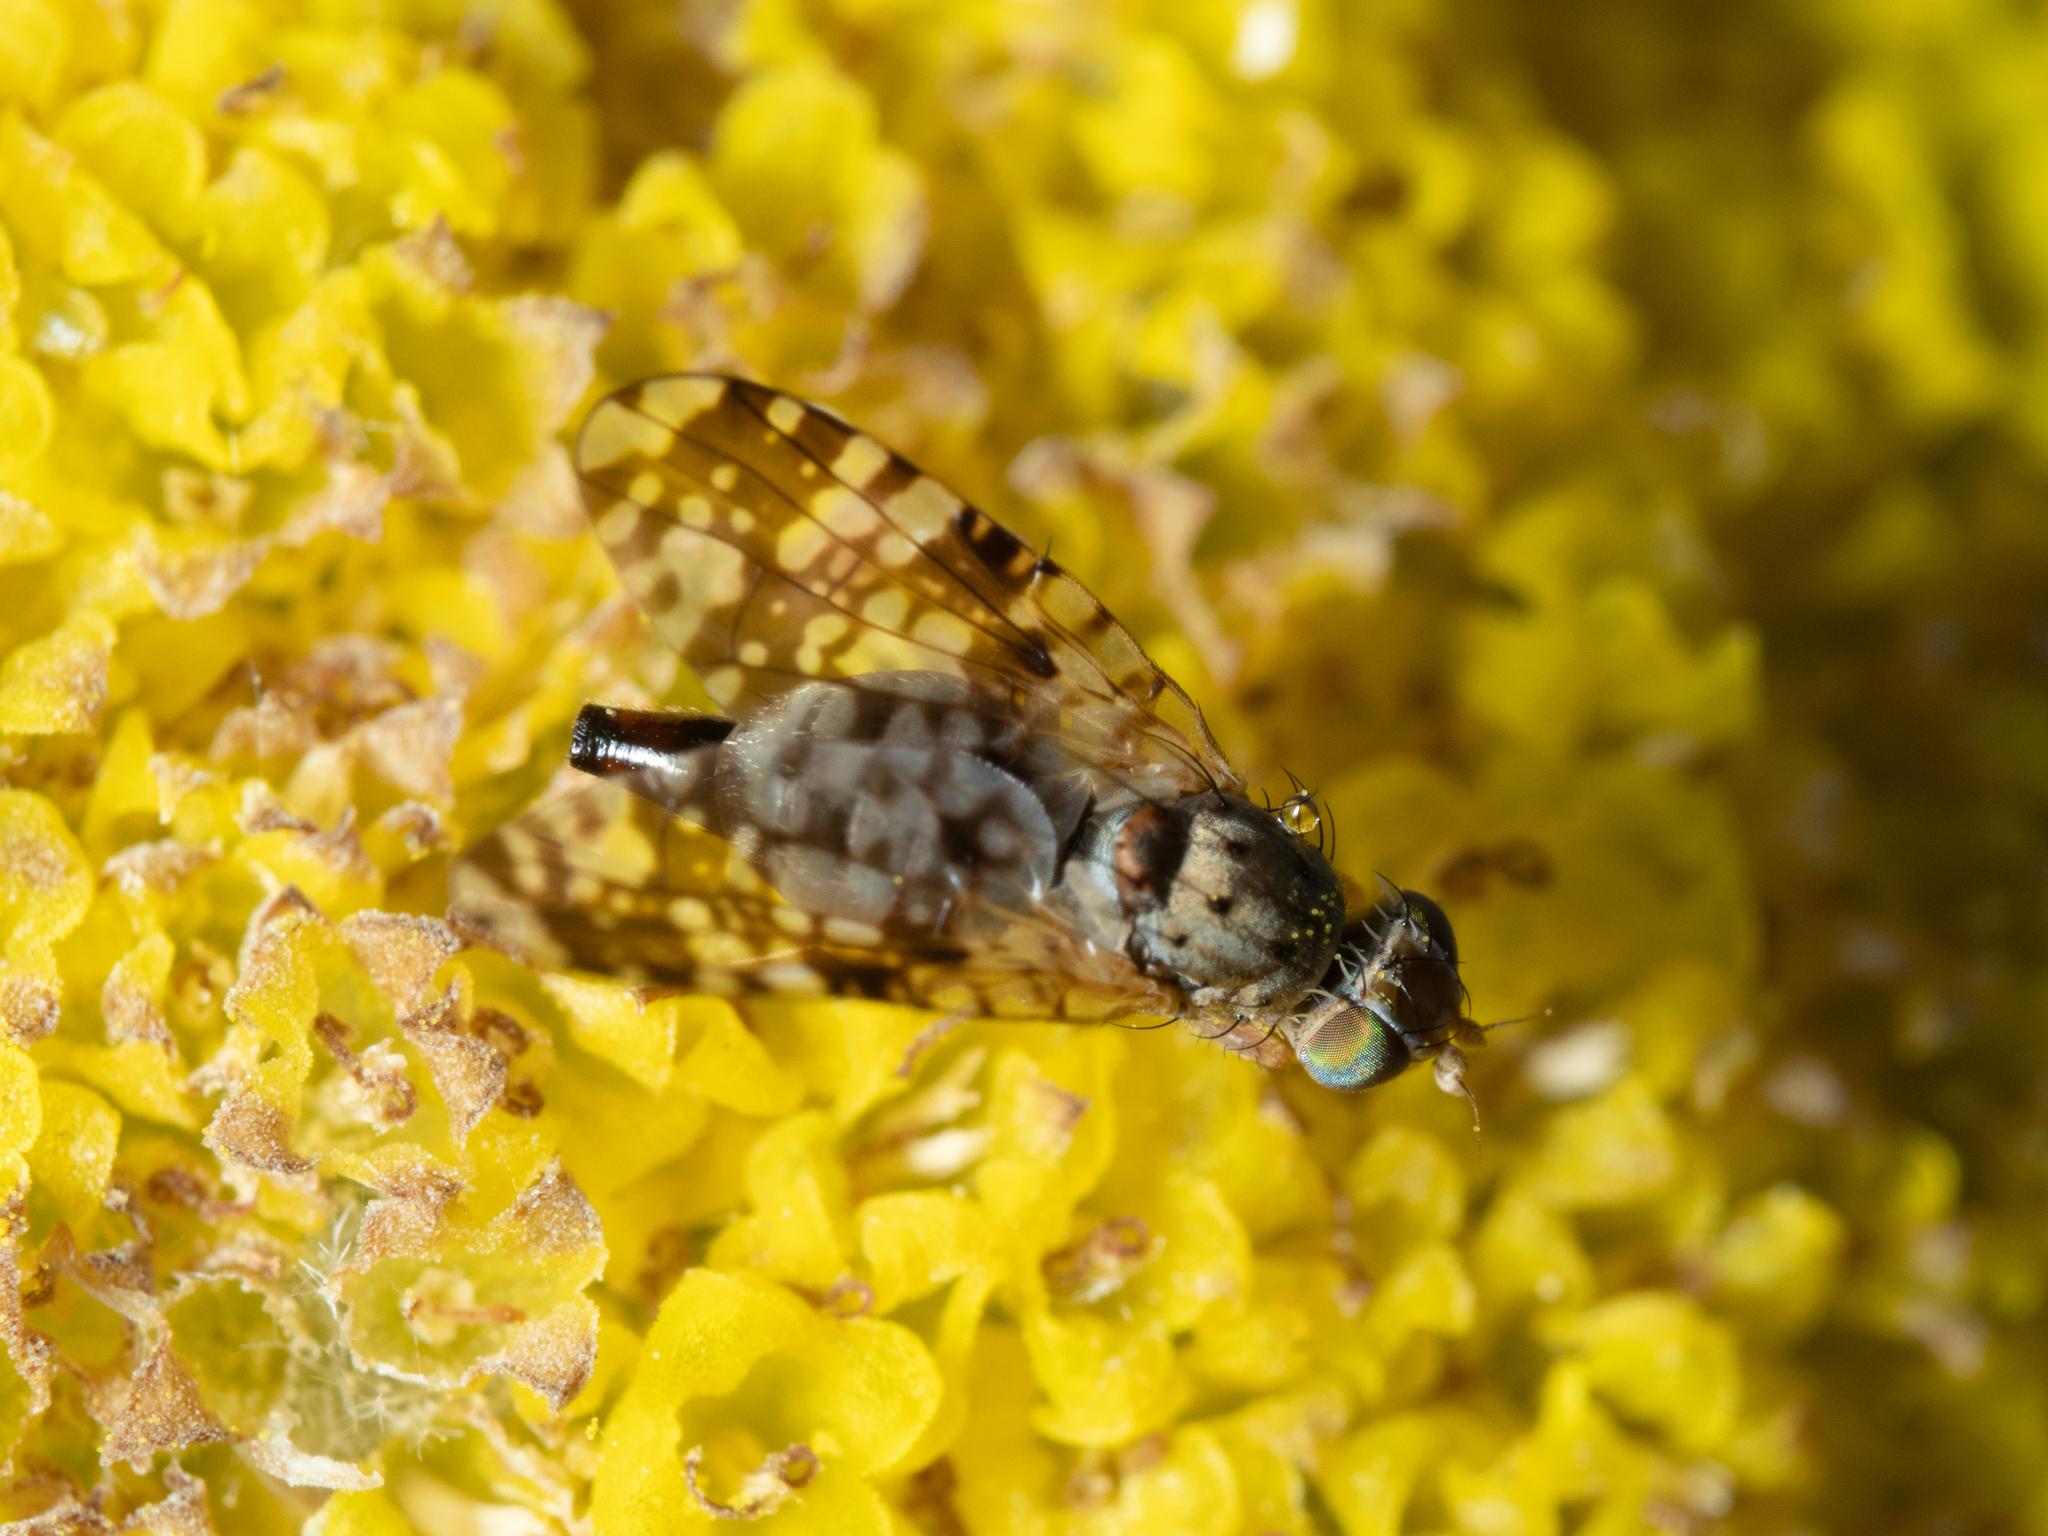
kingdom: Animalia
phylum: Arthropoda
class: Insecta
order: Diptera
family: Tephritidae
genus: Austrotephritis
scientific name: Austrotephritis
